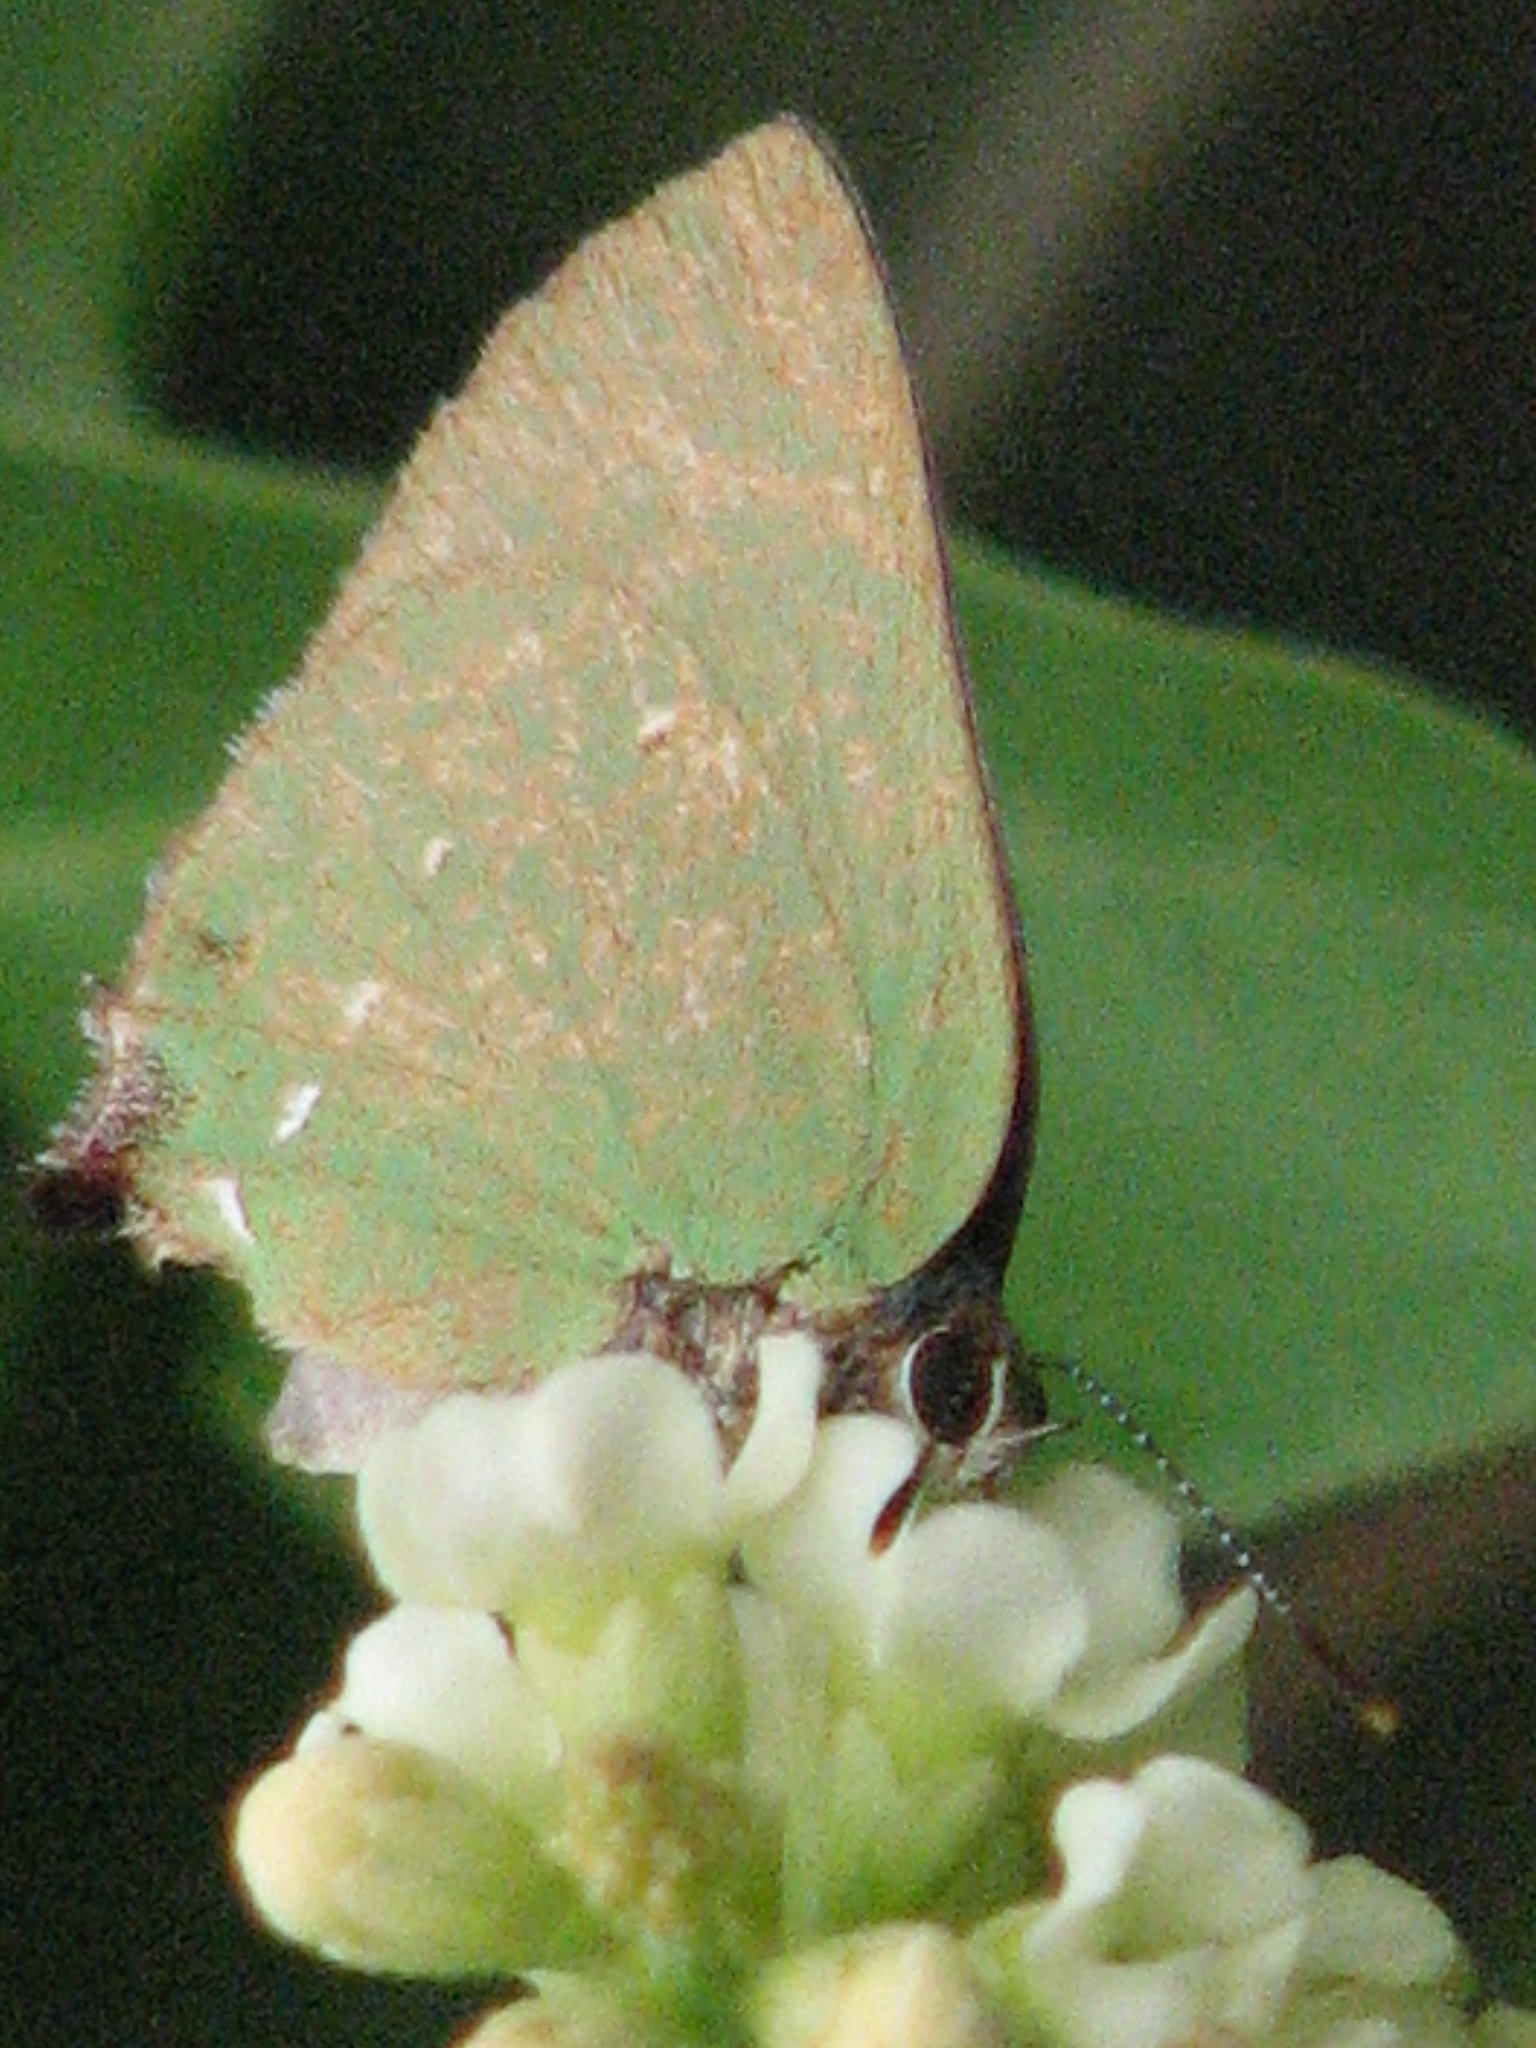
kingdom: Animalia
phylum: Arthropoda
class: Insecta
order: Lepidoptera
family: Lycaenidae
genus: Thecla
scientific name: Thecla herodotus
